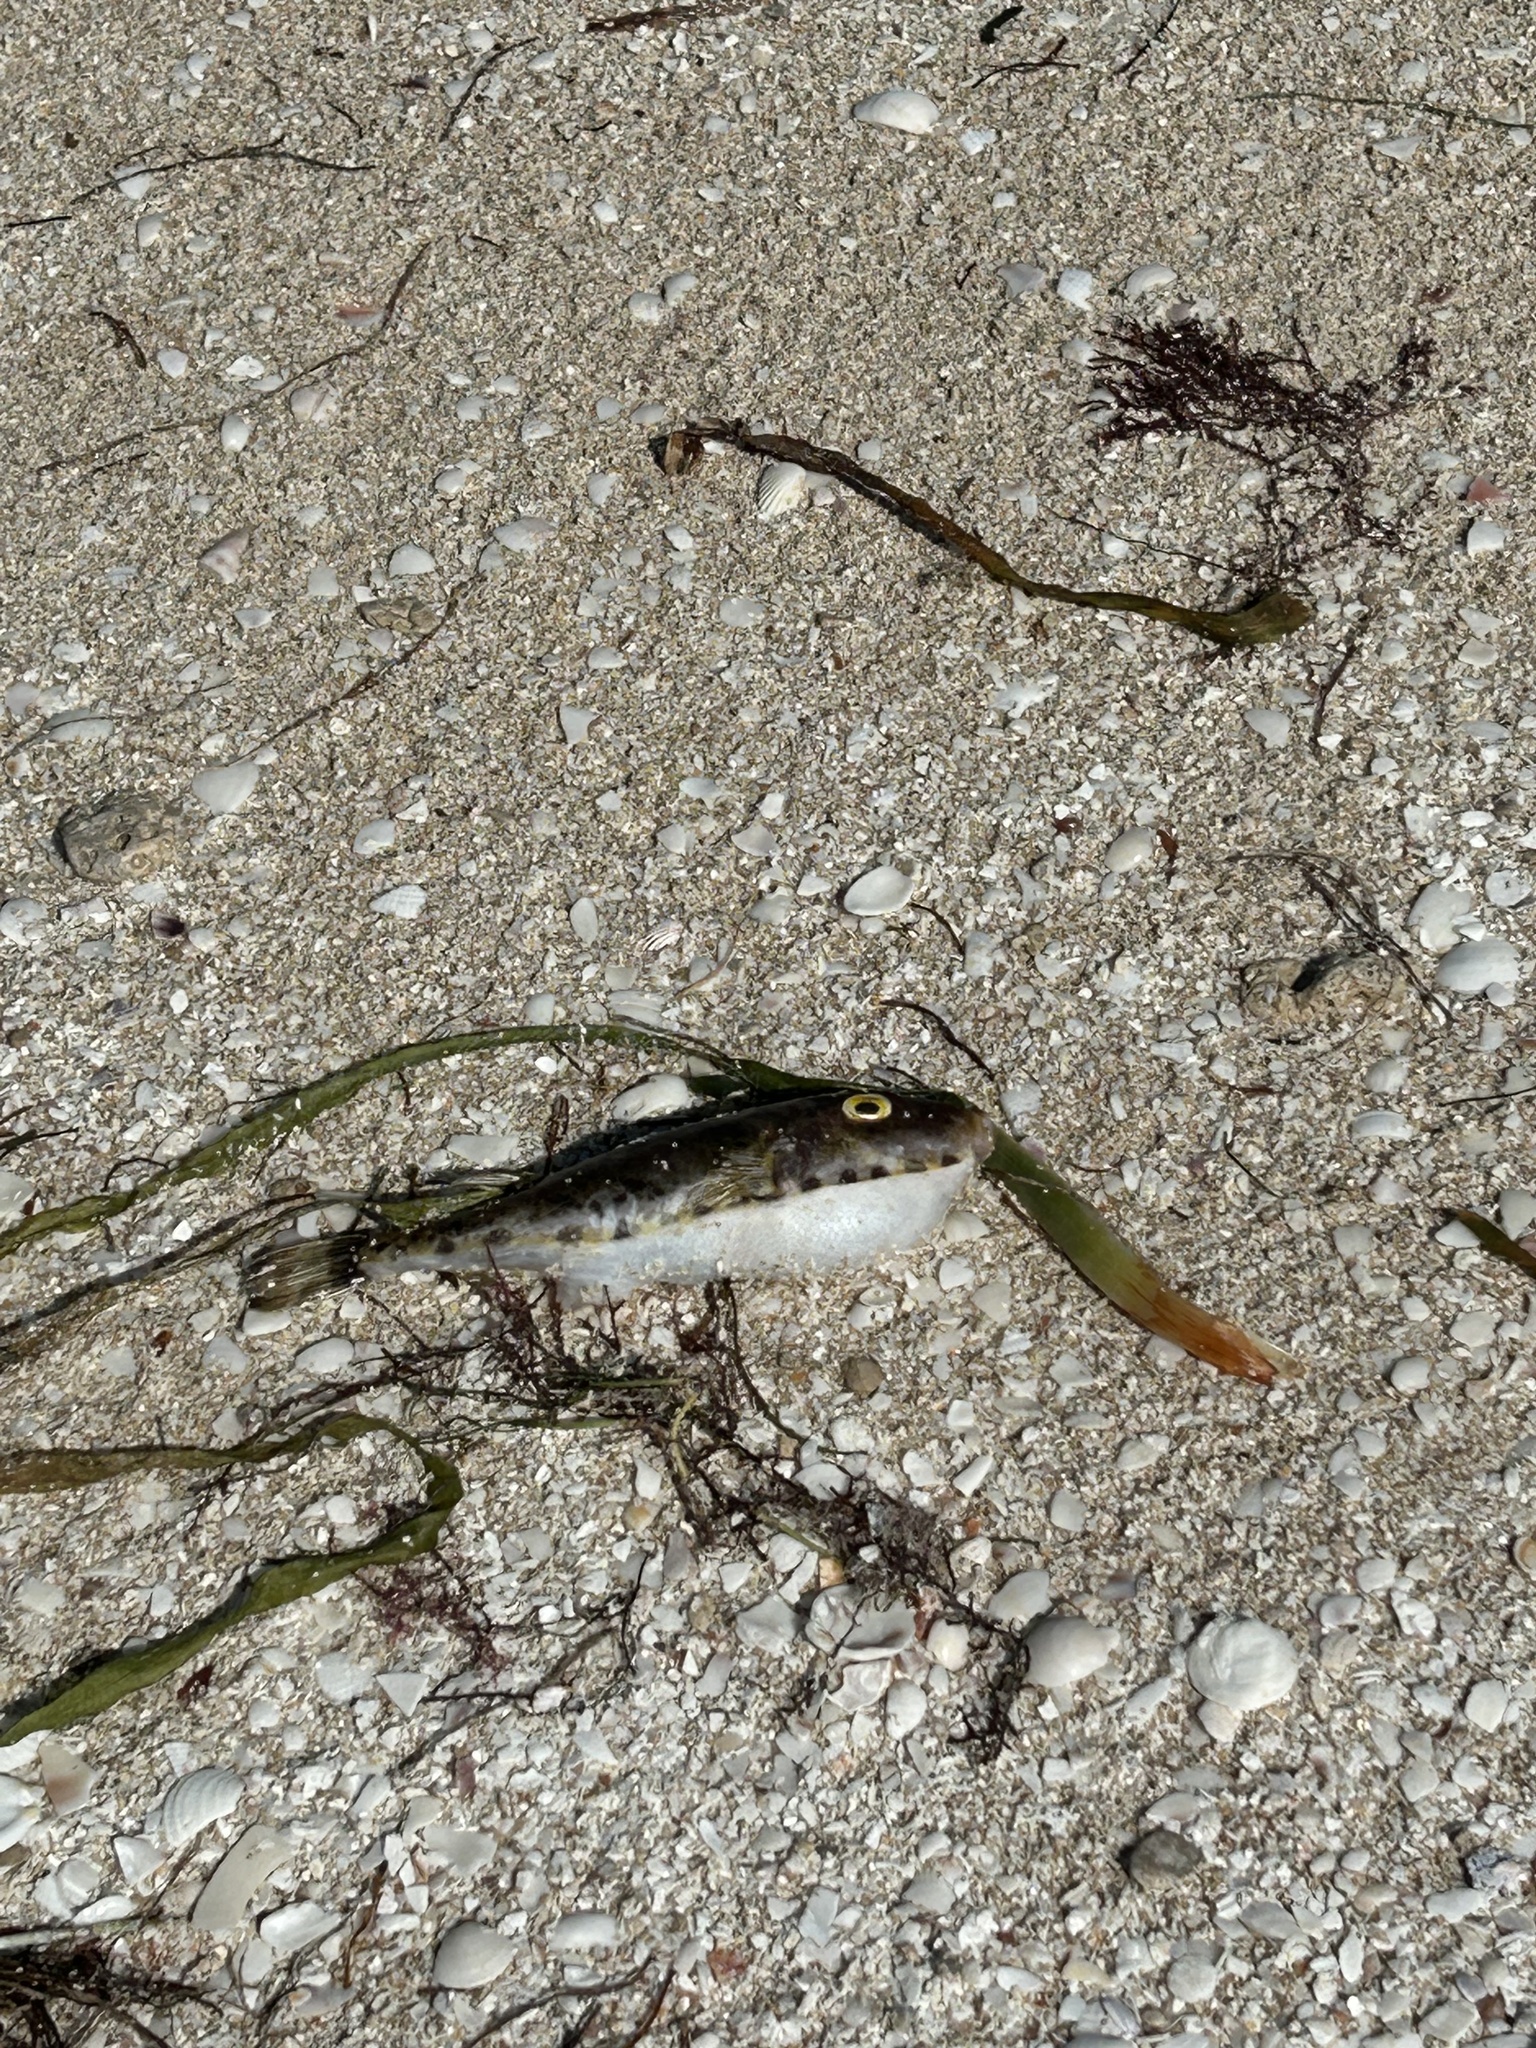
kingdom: Animalia
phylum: Chordata
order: Tetraodontiformes
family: Tetraodontidae
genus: Sphoeroides
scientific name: Sphoeroides spengleri
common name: Bandtail puffer
